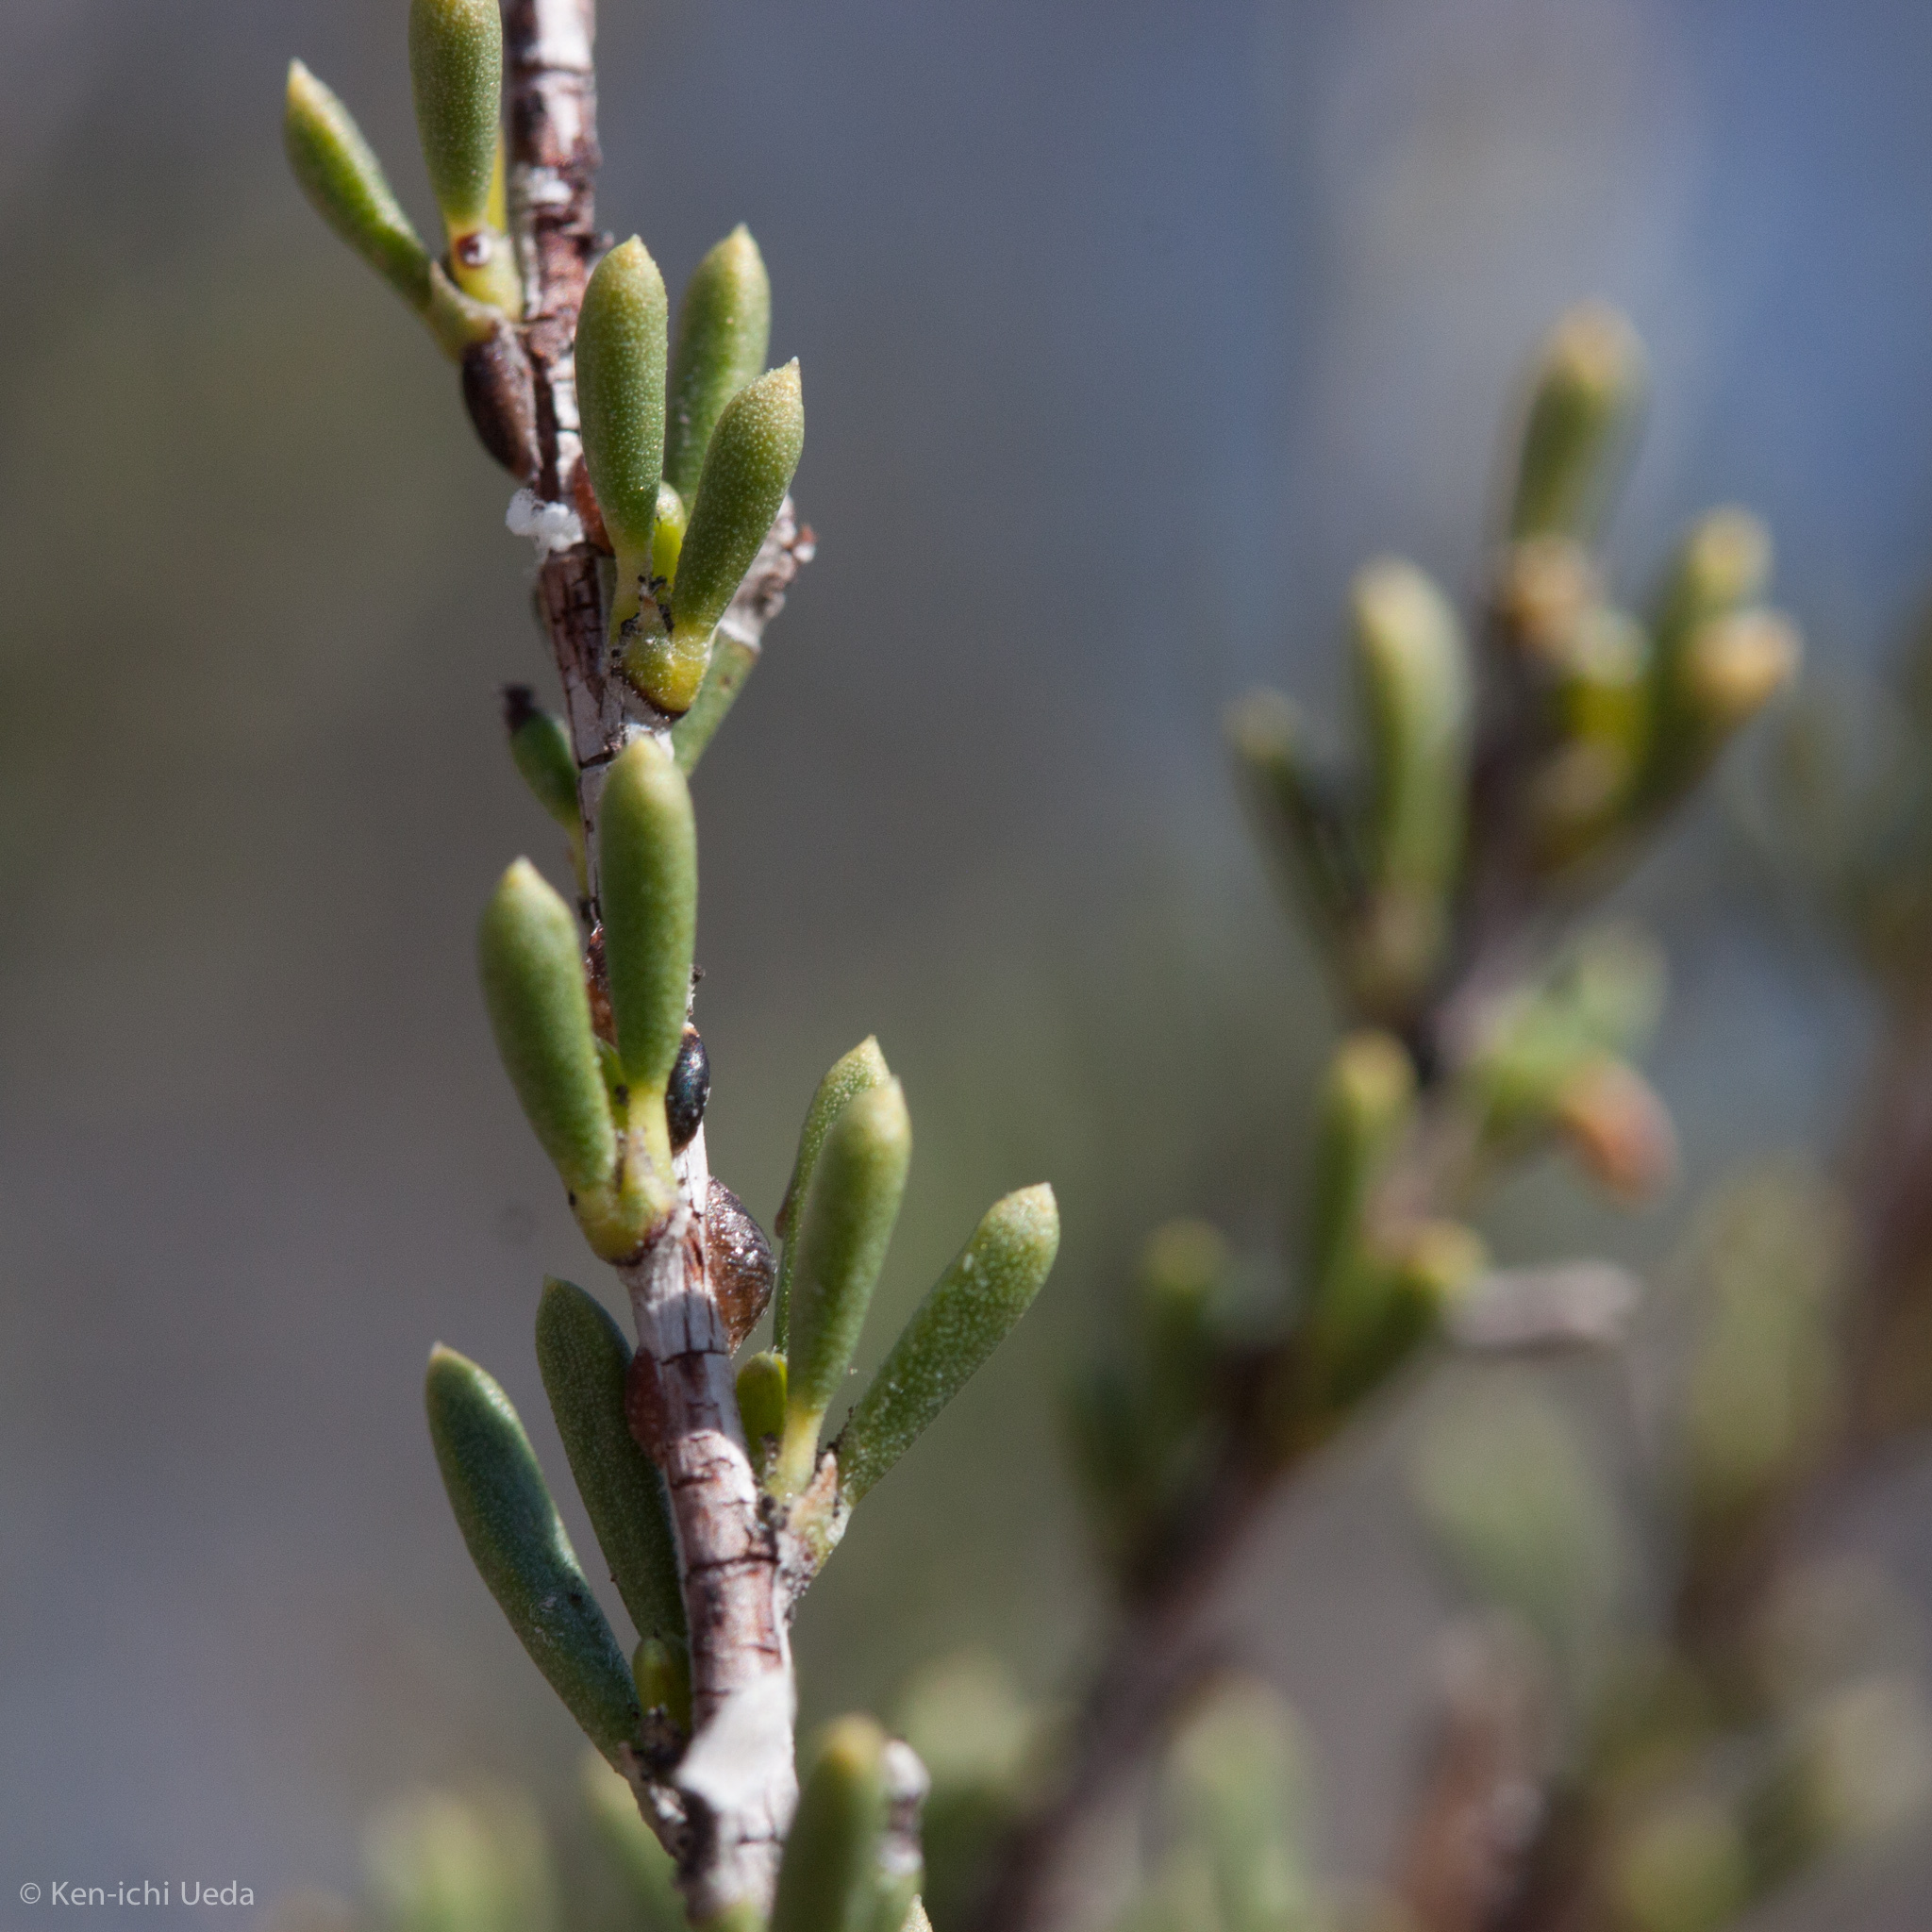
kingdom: Plantae
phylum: Tracheophyta
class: Magnoliopsida
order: Rosales
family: Rosaceae
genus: Adenostoma
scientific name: Adenostoma fasciculatum
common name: Chamise
